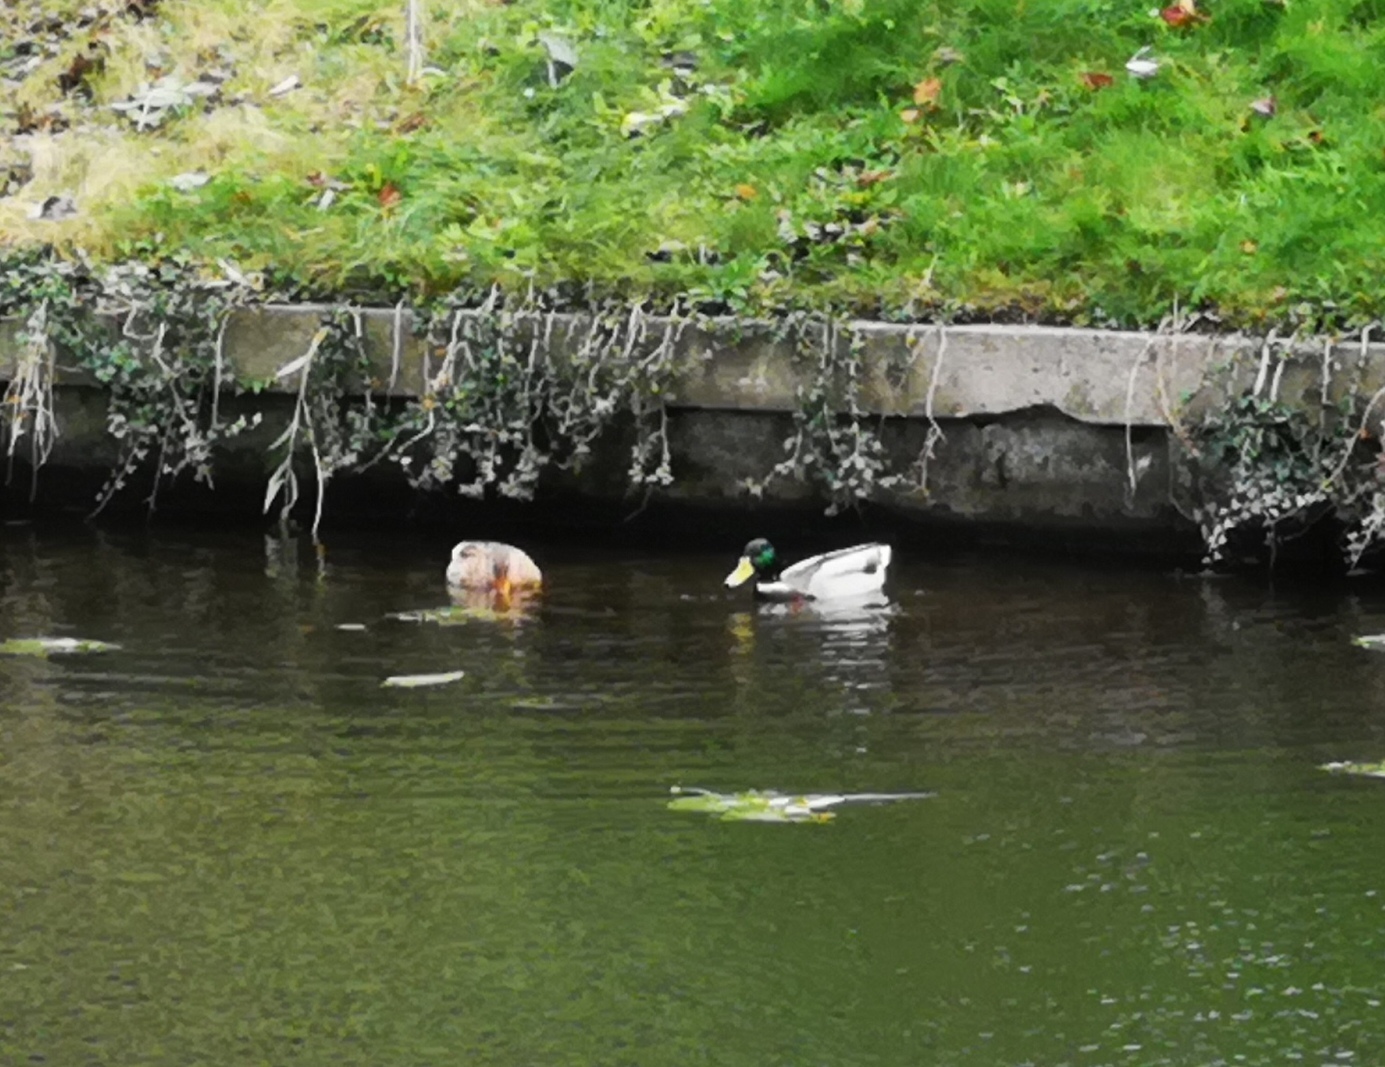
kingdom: Animalia
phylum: Chordata
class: Aves
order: Anseriformes
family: Anatidae
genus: Anas
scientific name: Anas platyrhynchos
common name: Mallard
